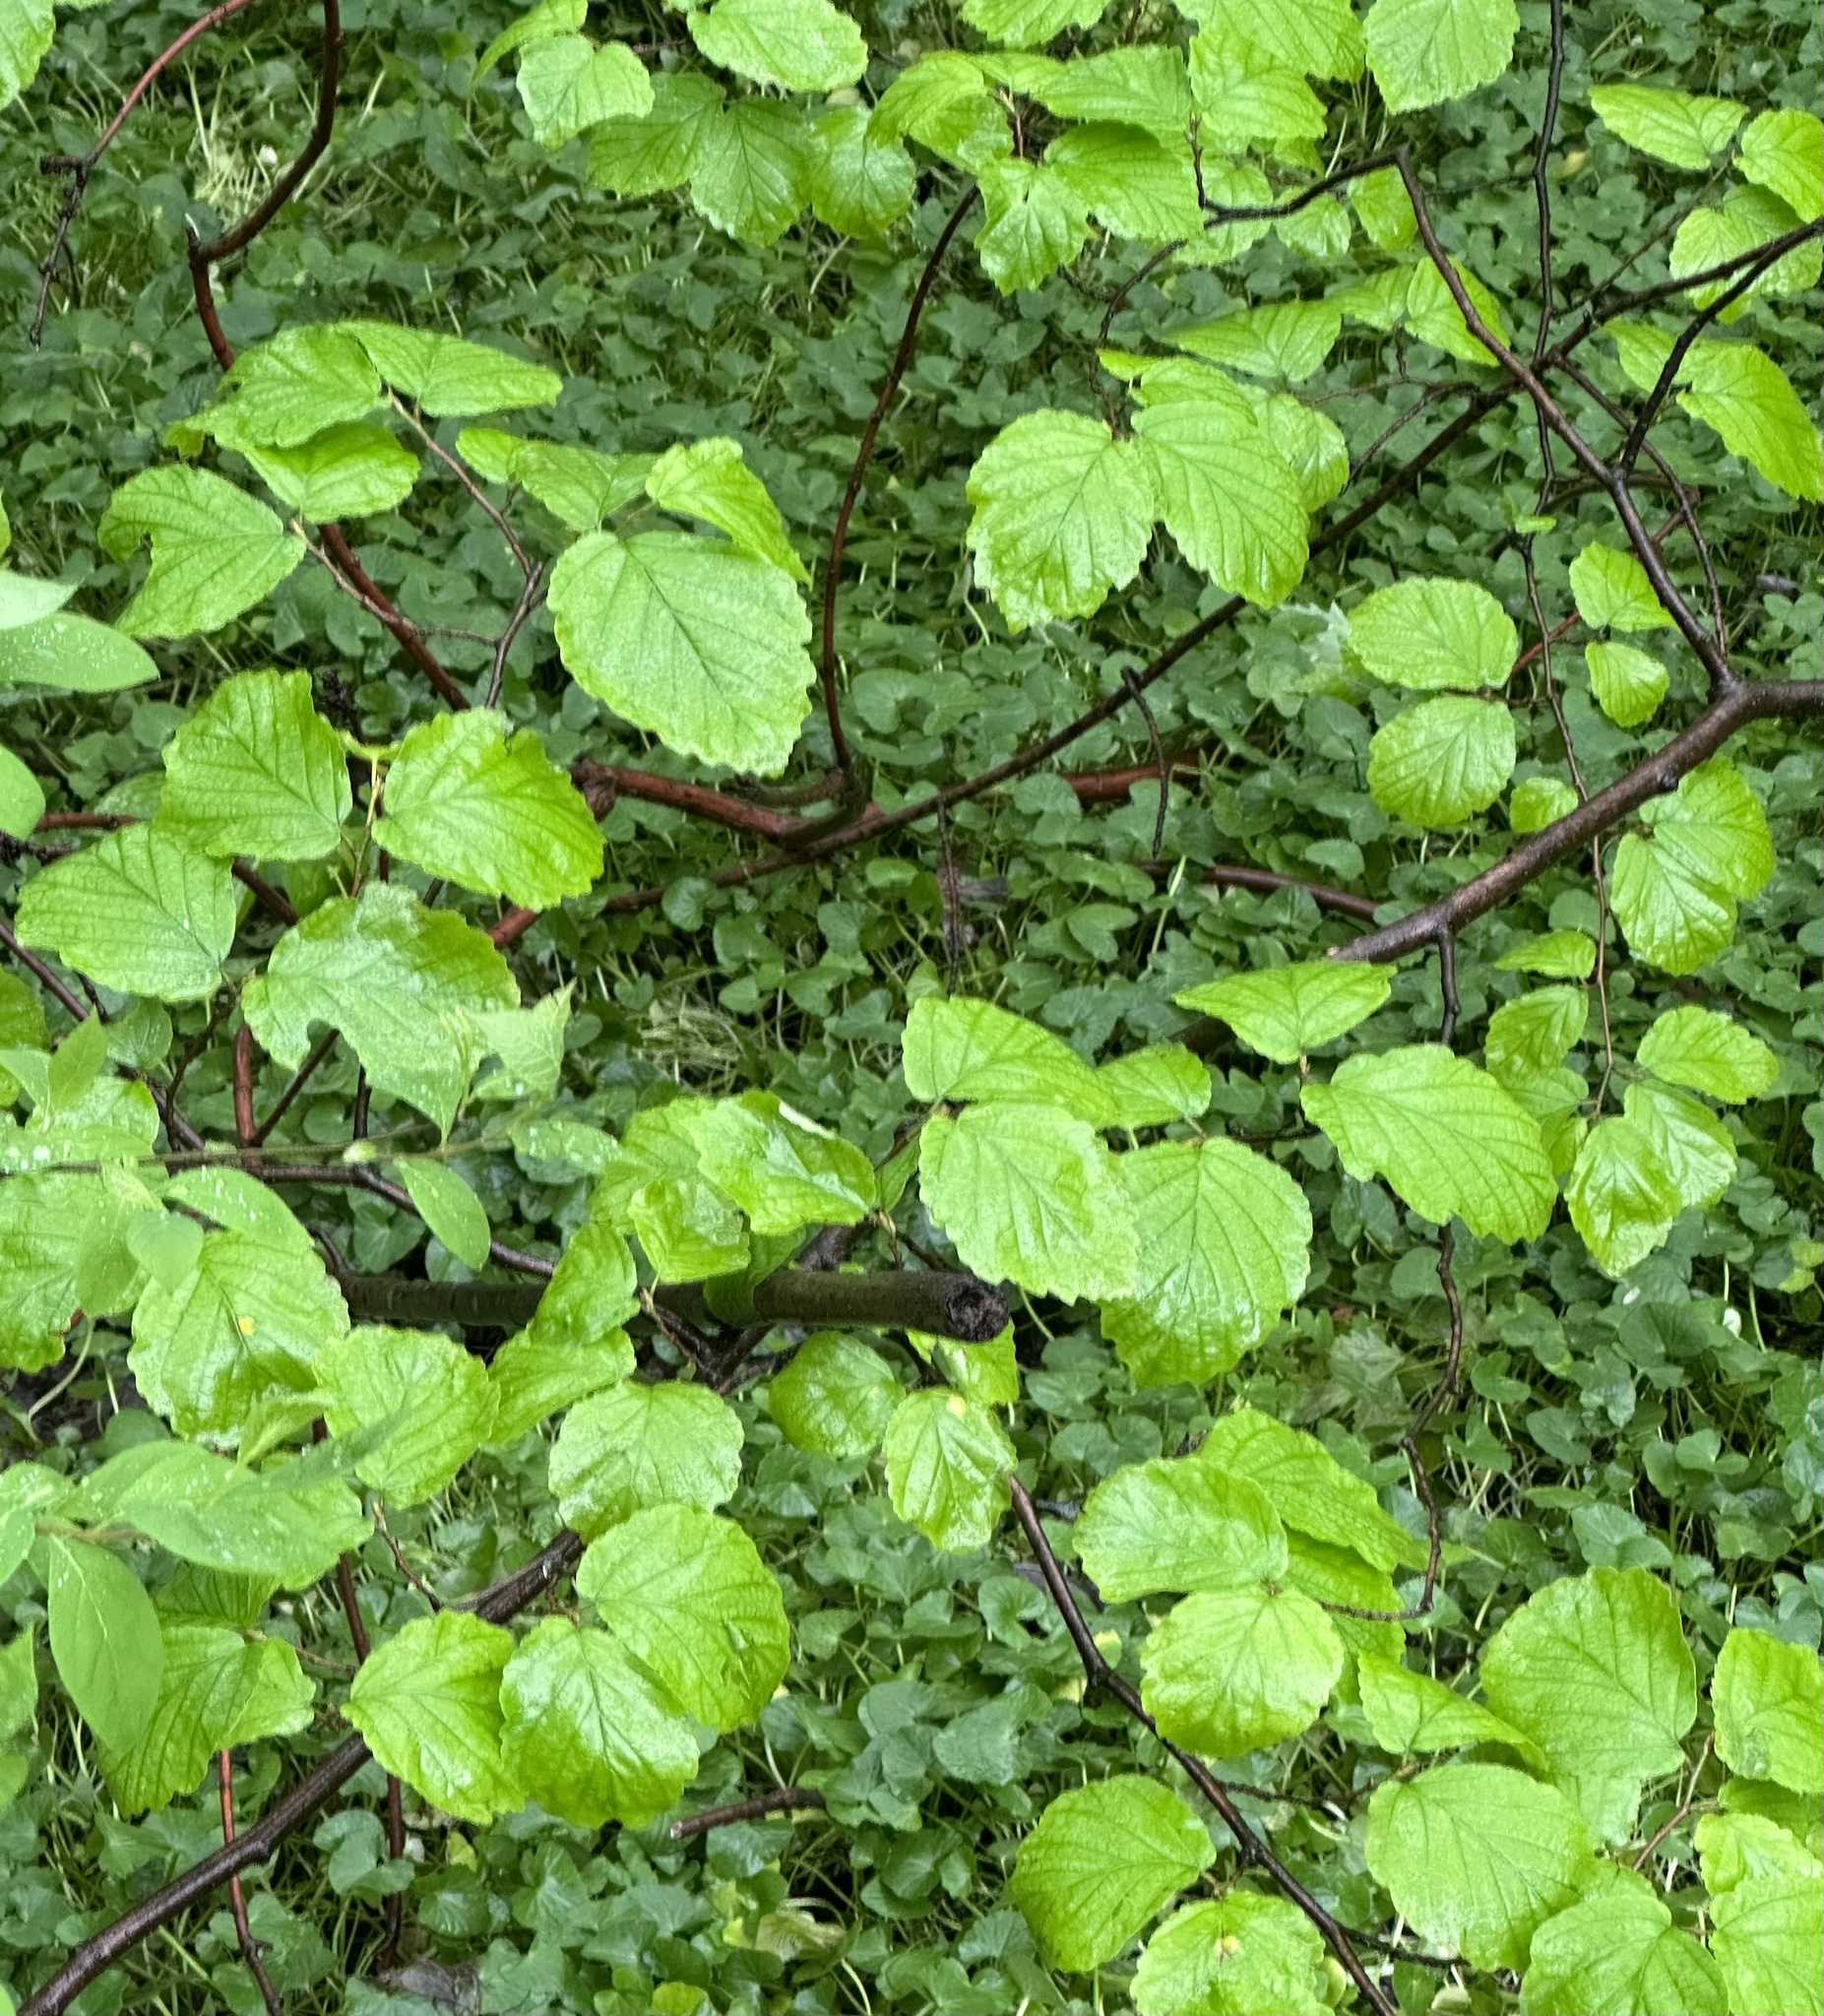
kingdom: Plantae
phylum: Tracheophyta
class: Magnoliopsida
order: Saxifragales
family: Hamamelidaceae
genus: Hamamelis
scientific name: Hamamelis virginiana
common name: Witch-hazel
